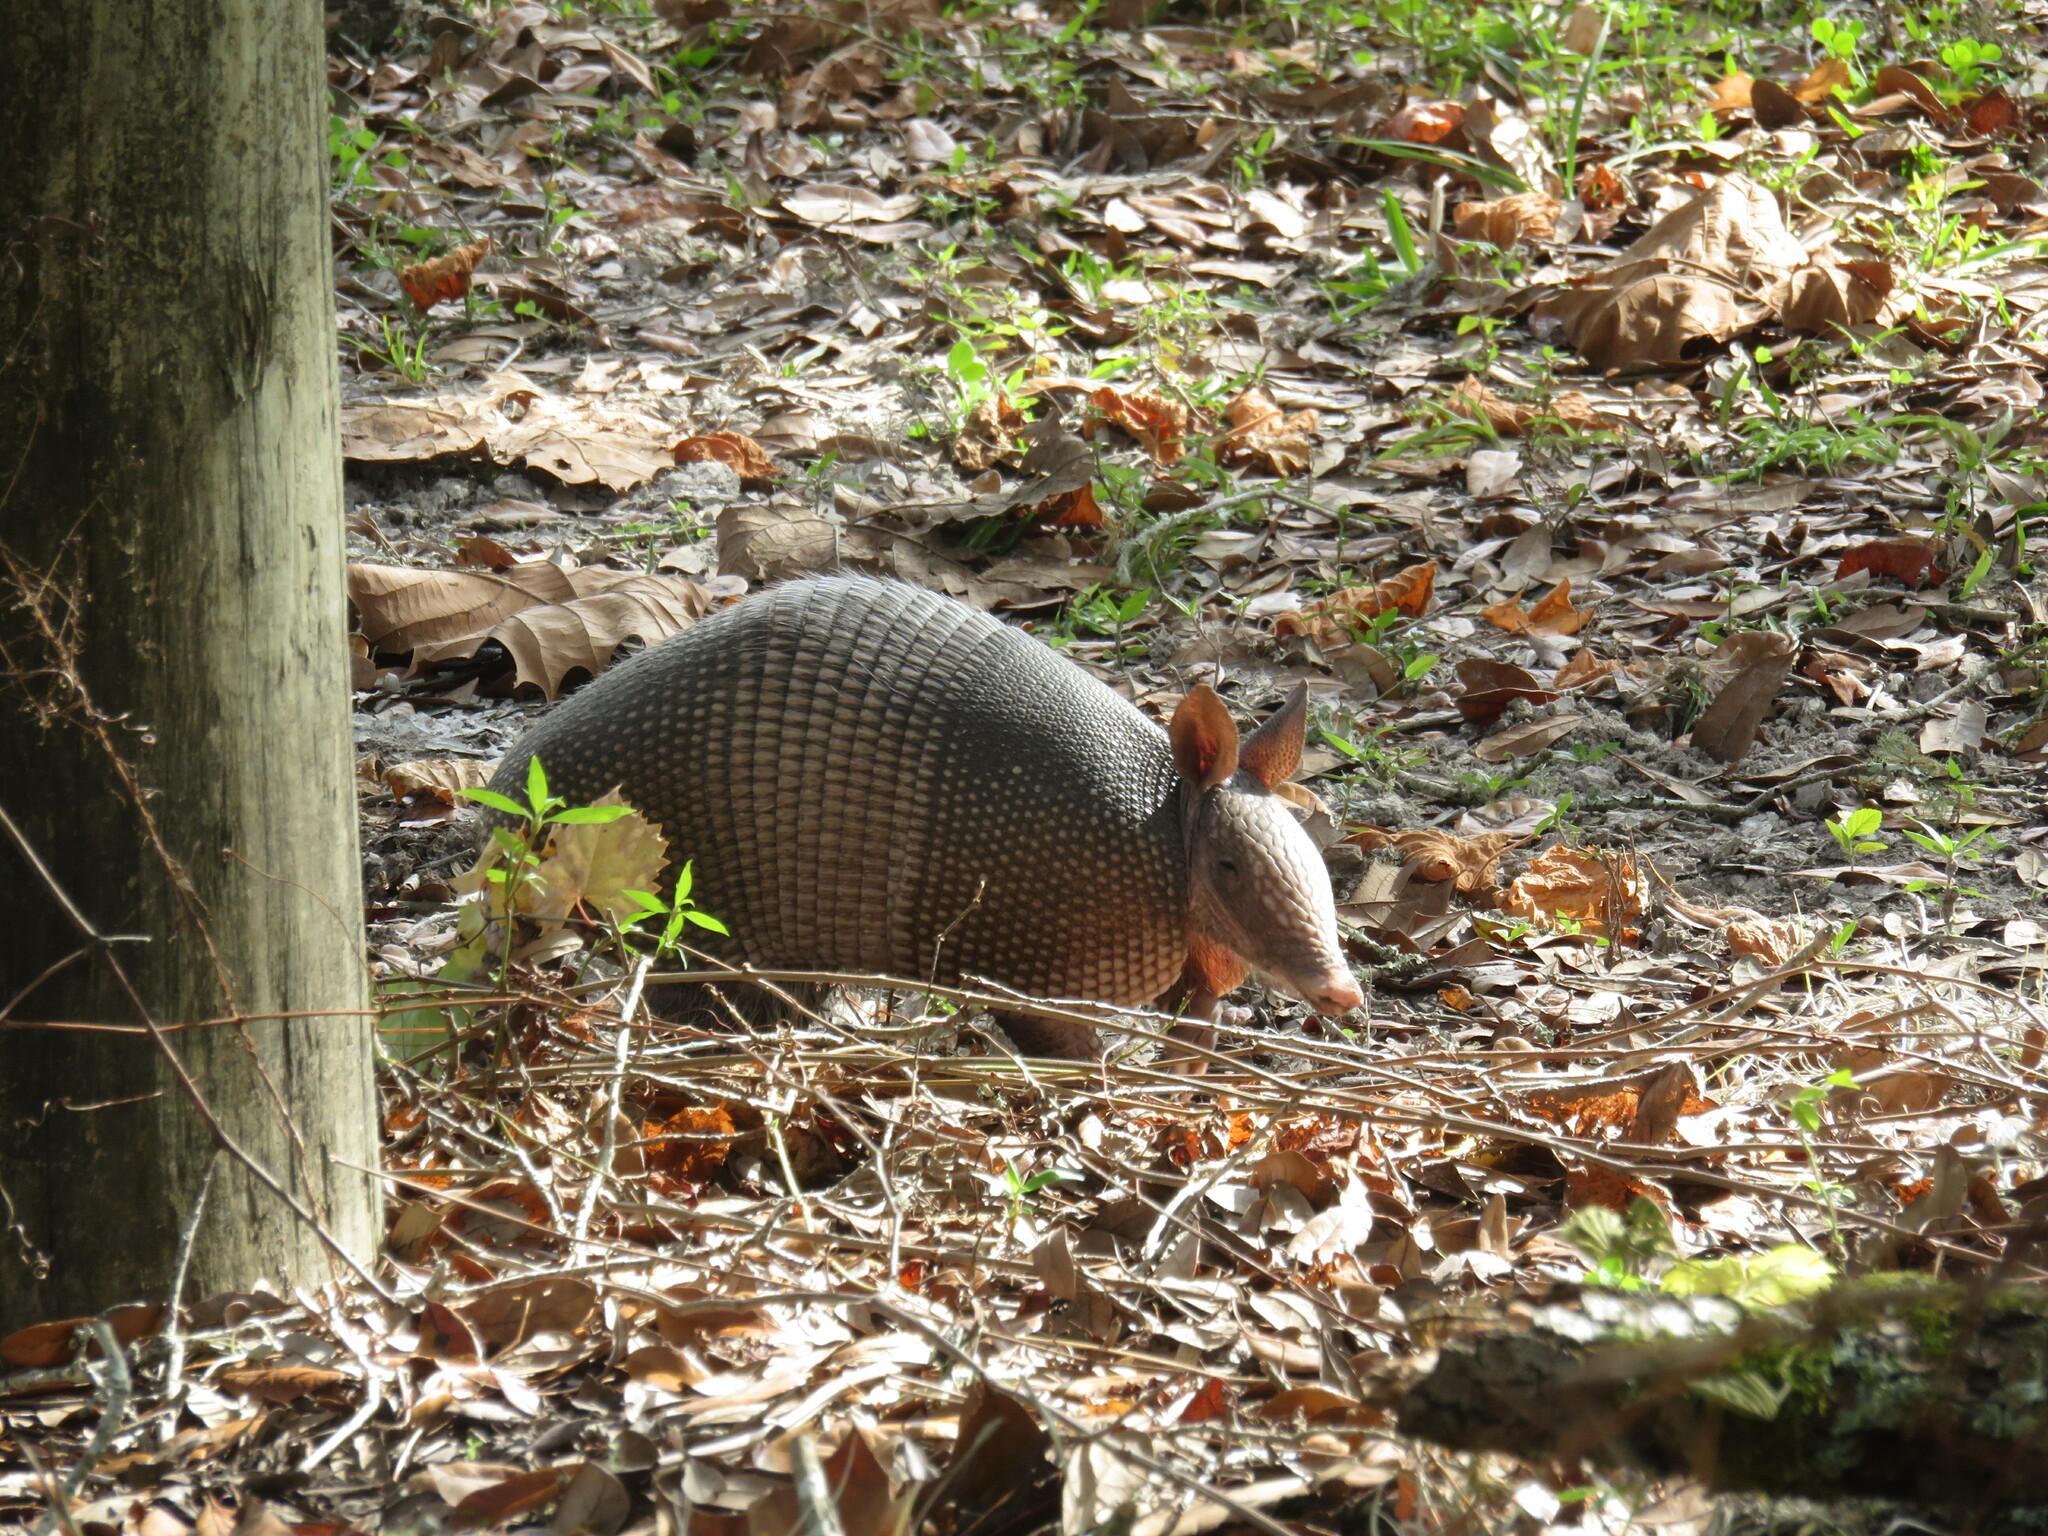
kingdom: Animalia
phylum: Chordata
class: Mammalia
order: Cingulata
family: Dasypodidae
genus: Dasypus
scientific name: Dasypus novemcinctus
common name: Nine-banded armadillo
